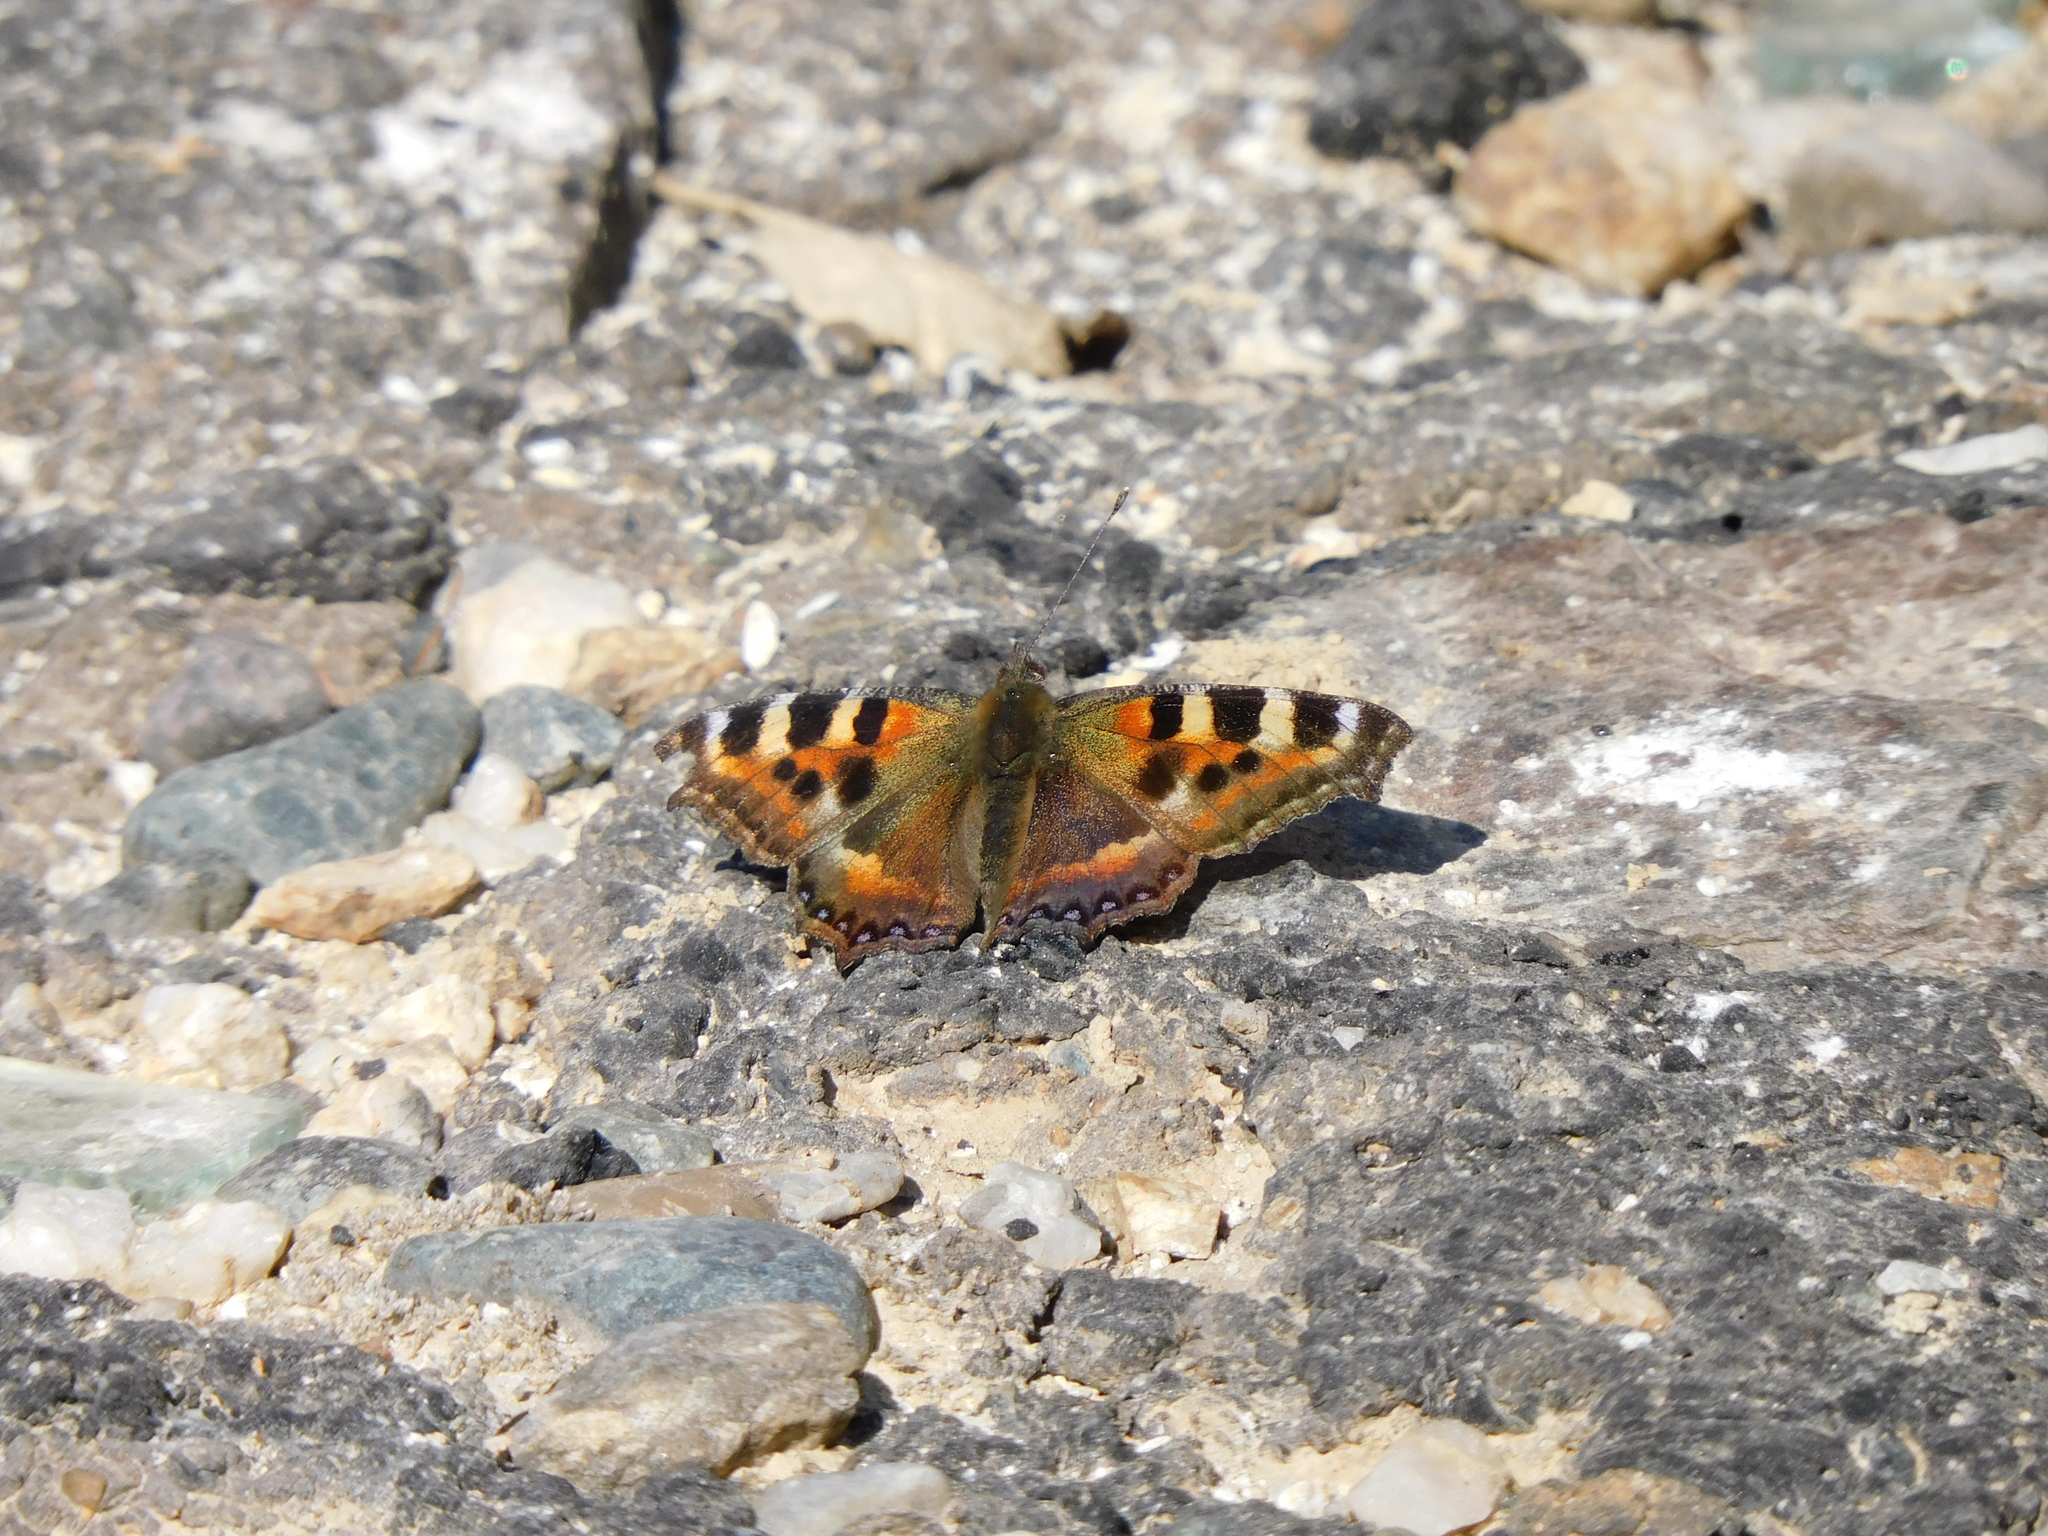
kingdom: Animalia
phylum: Arthropoda
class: Insecta
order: Lepidoptera
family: Nymphalidae
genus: Aglais
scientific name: Aglais caschmirensis
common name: Indian tortoiseshell
